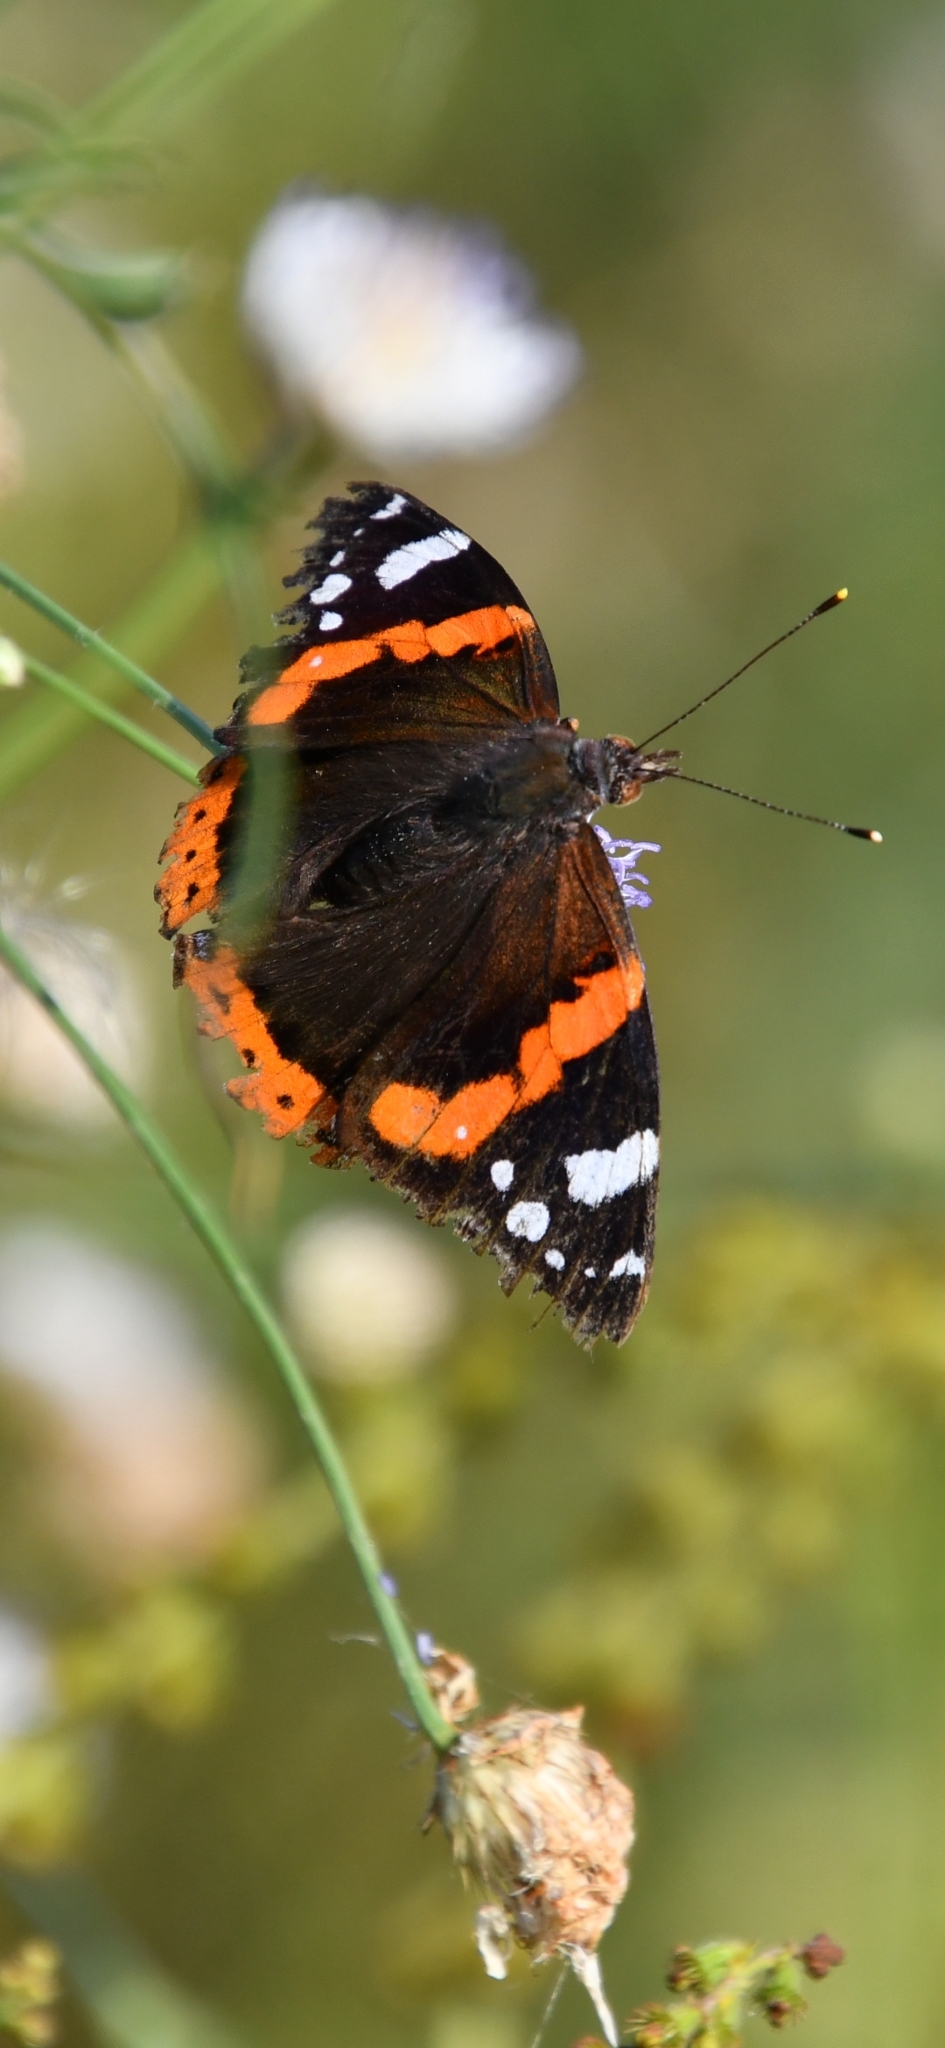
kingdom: Animalia
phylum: Arthropoda
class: Insecta
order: Lepidoptera
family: Nymphalidae
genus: Vanessa
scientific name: Vanessa atalanta
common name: Red admiral
